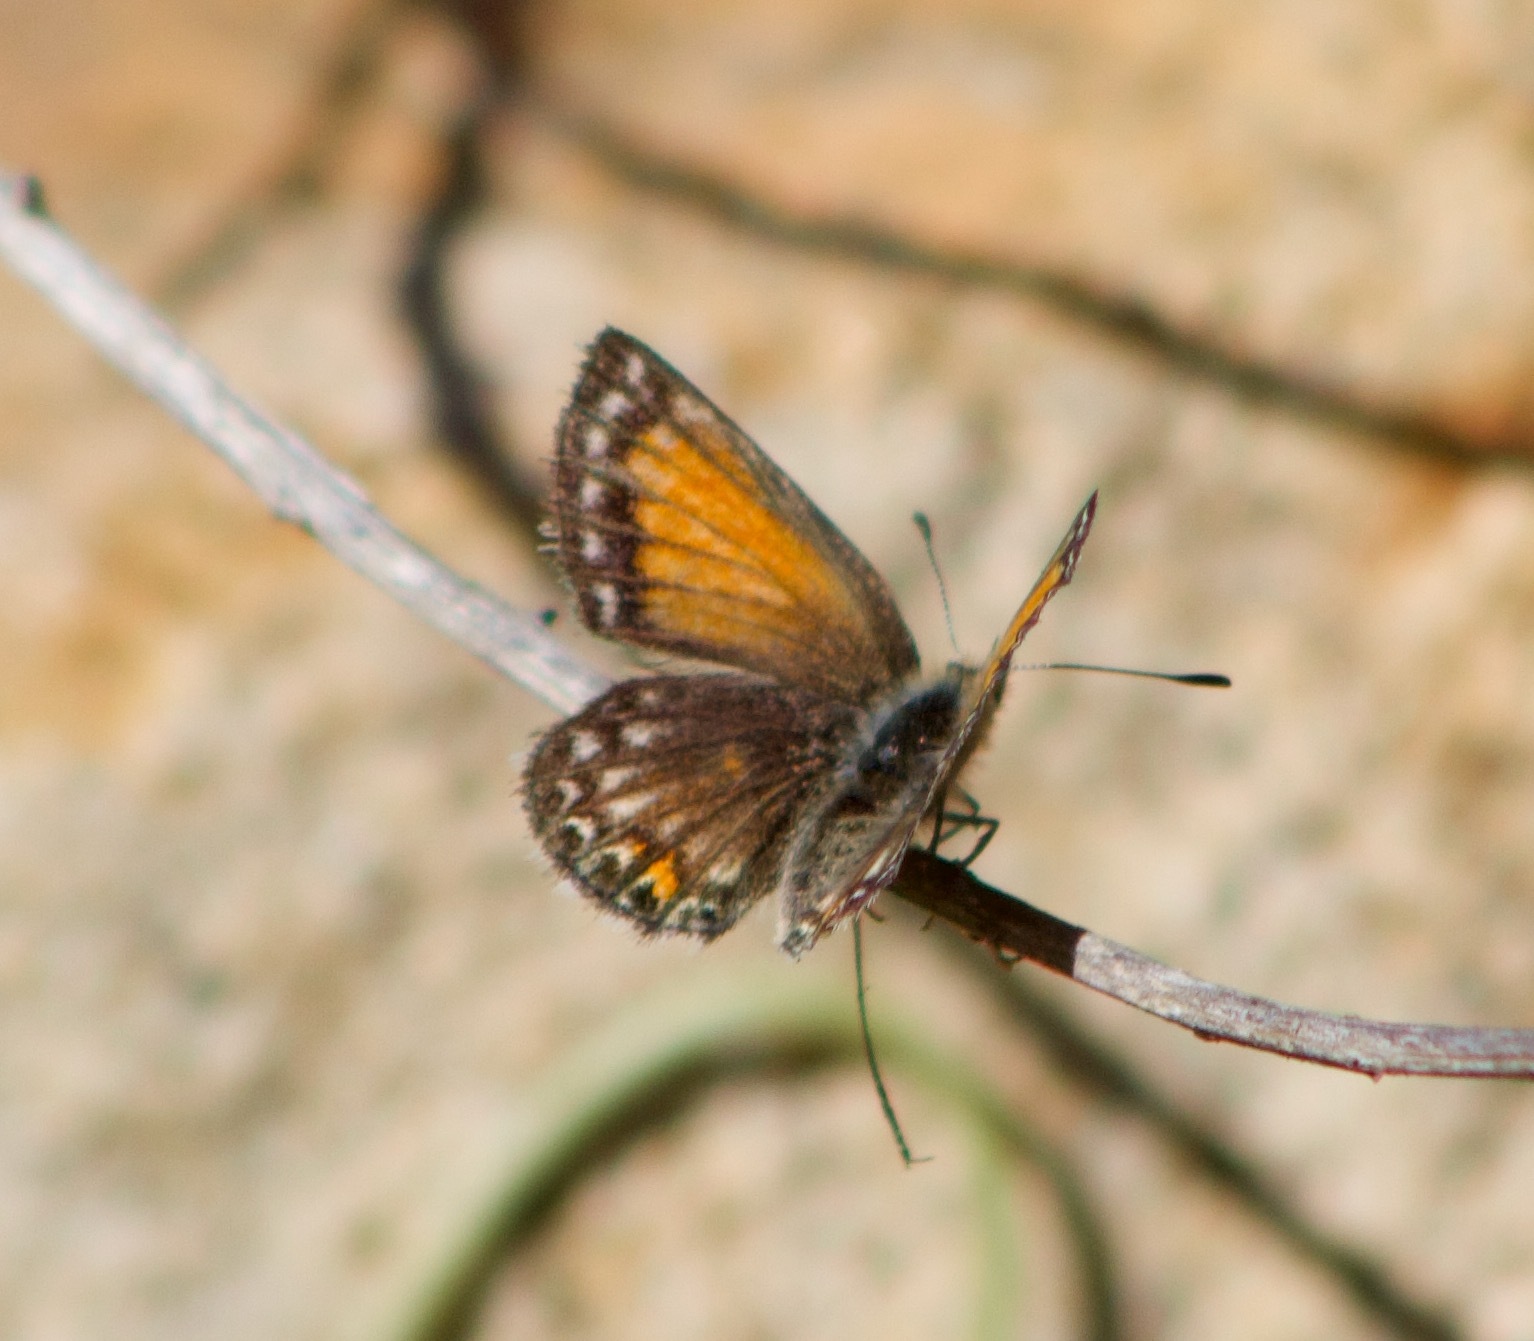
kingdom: Animalia
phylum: Arthropoda
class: Insecta
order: Lepidoptera
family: Lycaenidae
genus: Pseudolucia
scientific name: Pseudolucia chilensis
